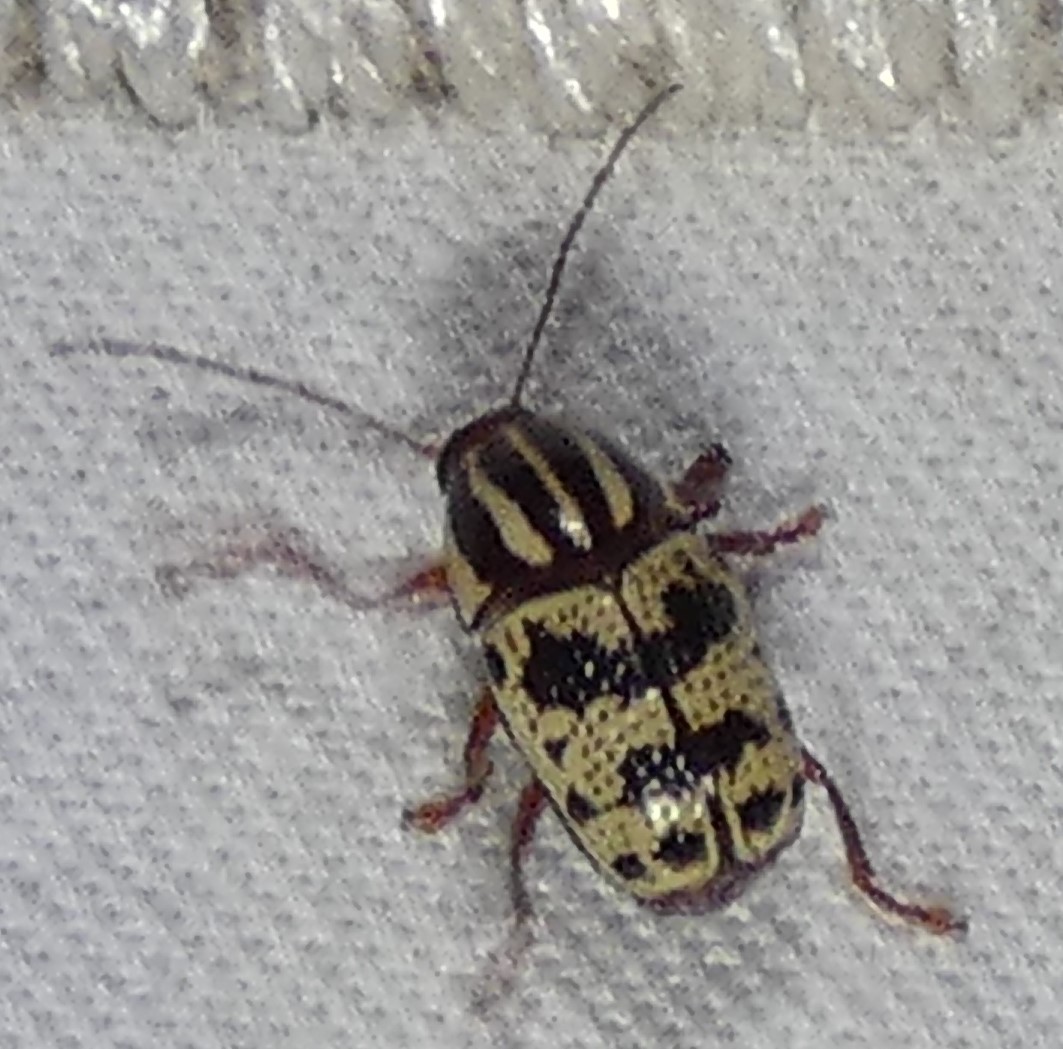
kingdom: Animalia
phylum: Arthropoda
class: Insecta
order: Coleoptera
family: Chrysomelidae
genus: Cryptocephalus
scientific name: Cryptocephalus leucomelas
